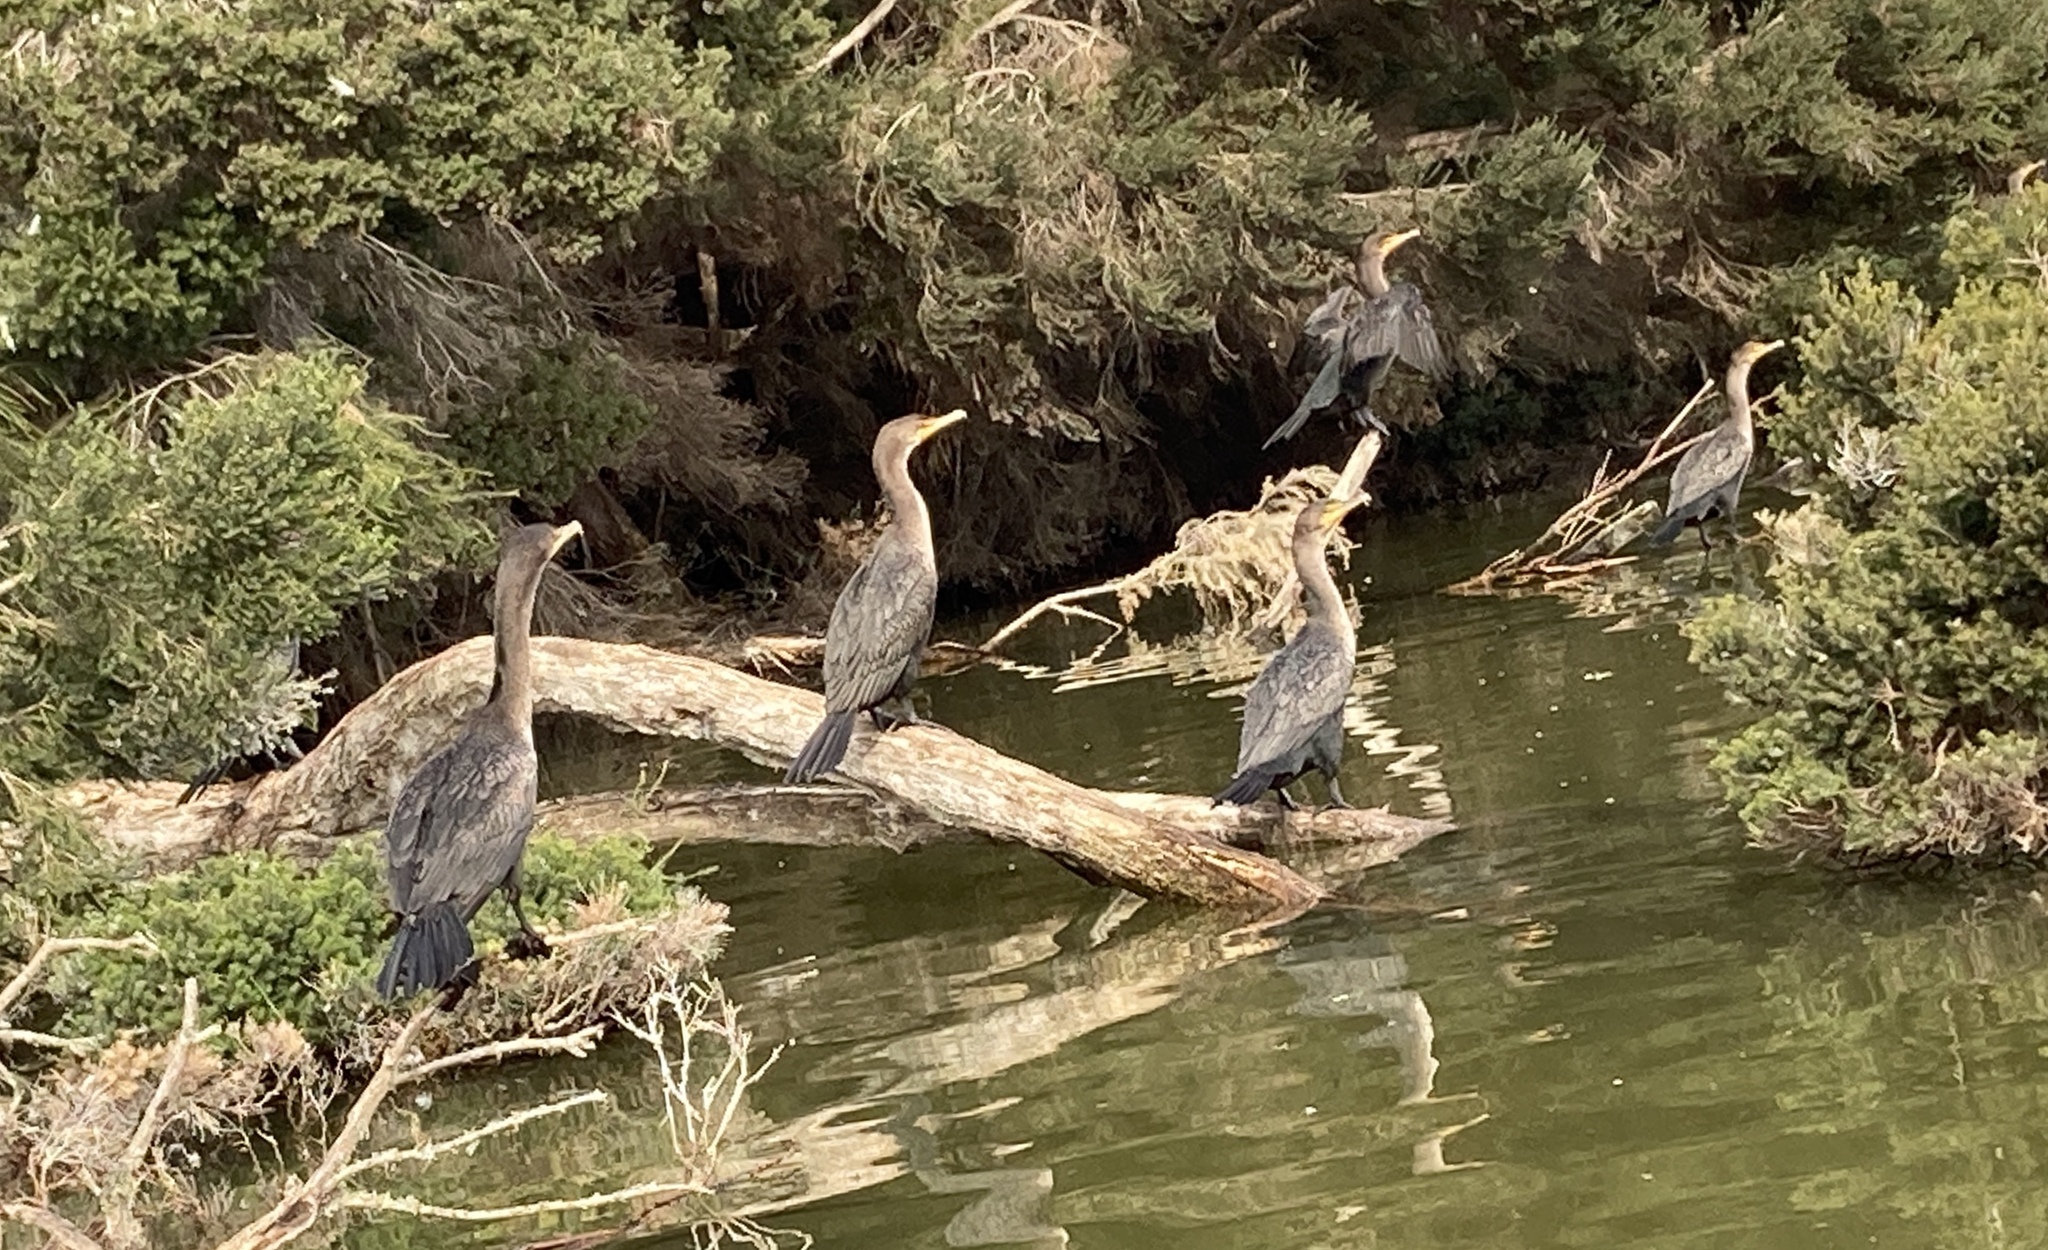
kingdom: Animalia
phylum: Chordata
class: Aves
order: Suliformes
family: Phalacrocoracidae
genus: Phalacrocorax
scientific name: Phalacrocorax auritus
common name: Double-crested cormorant
